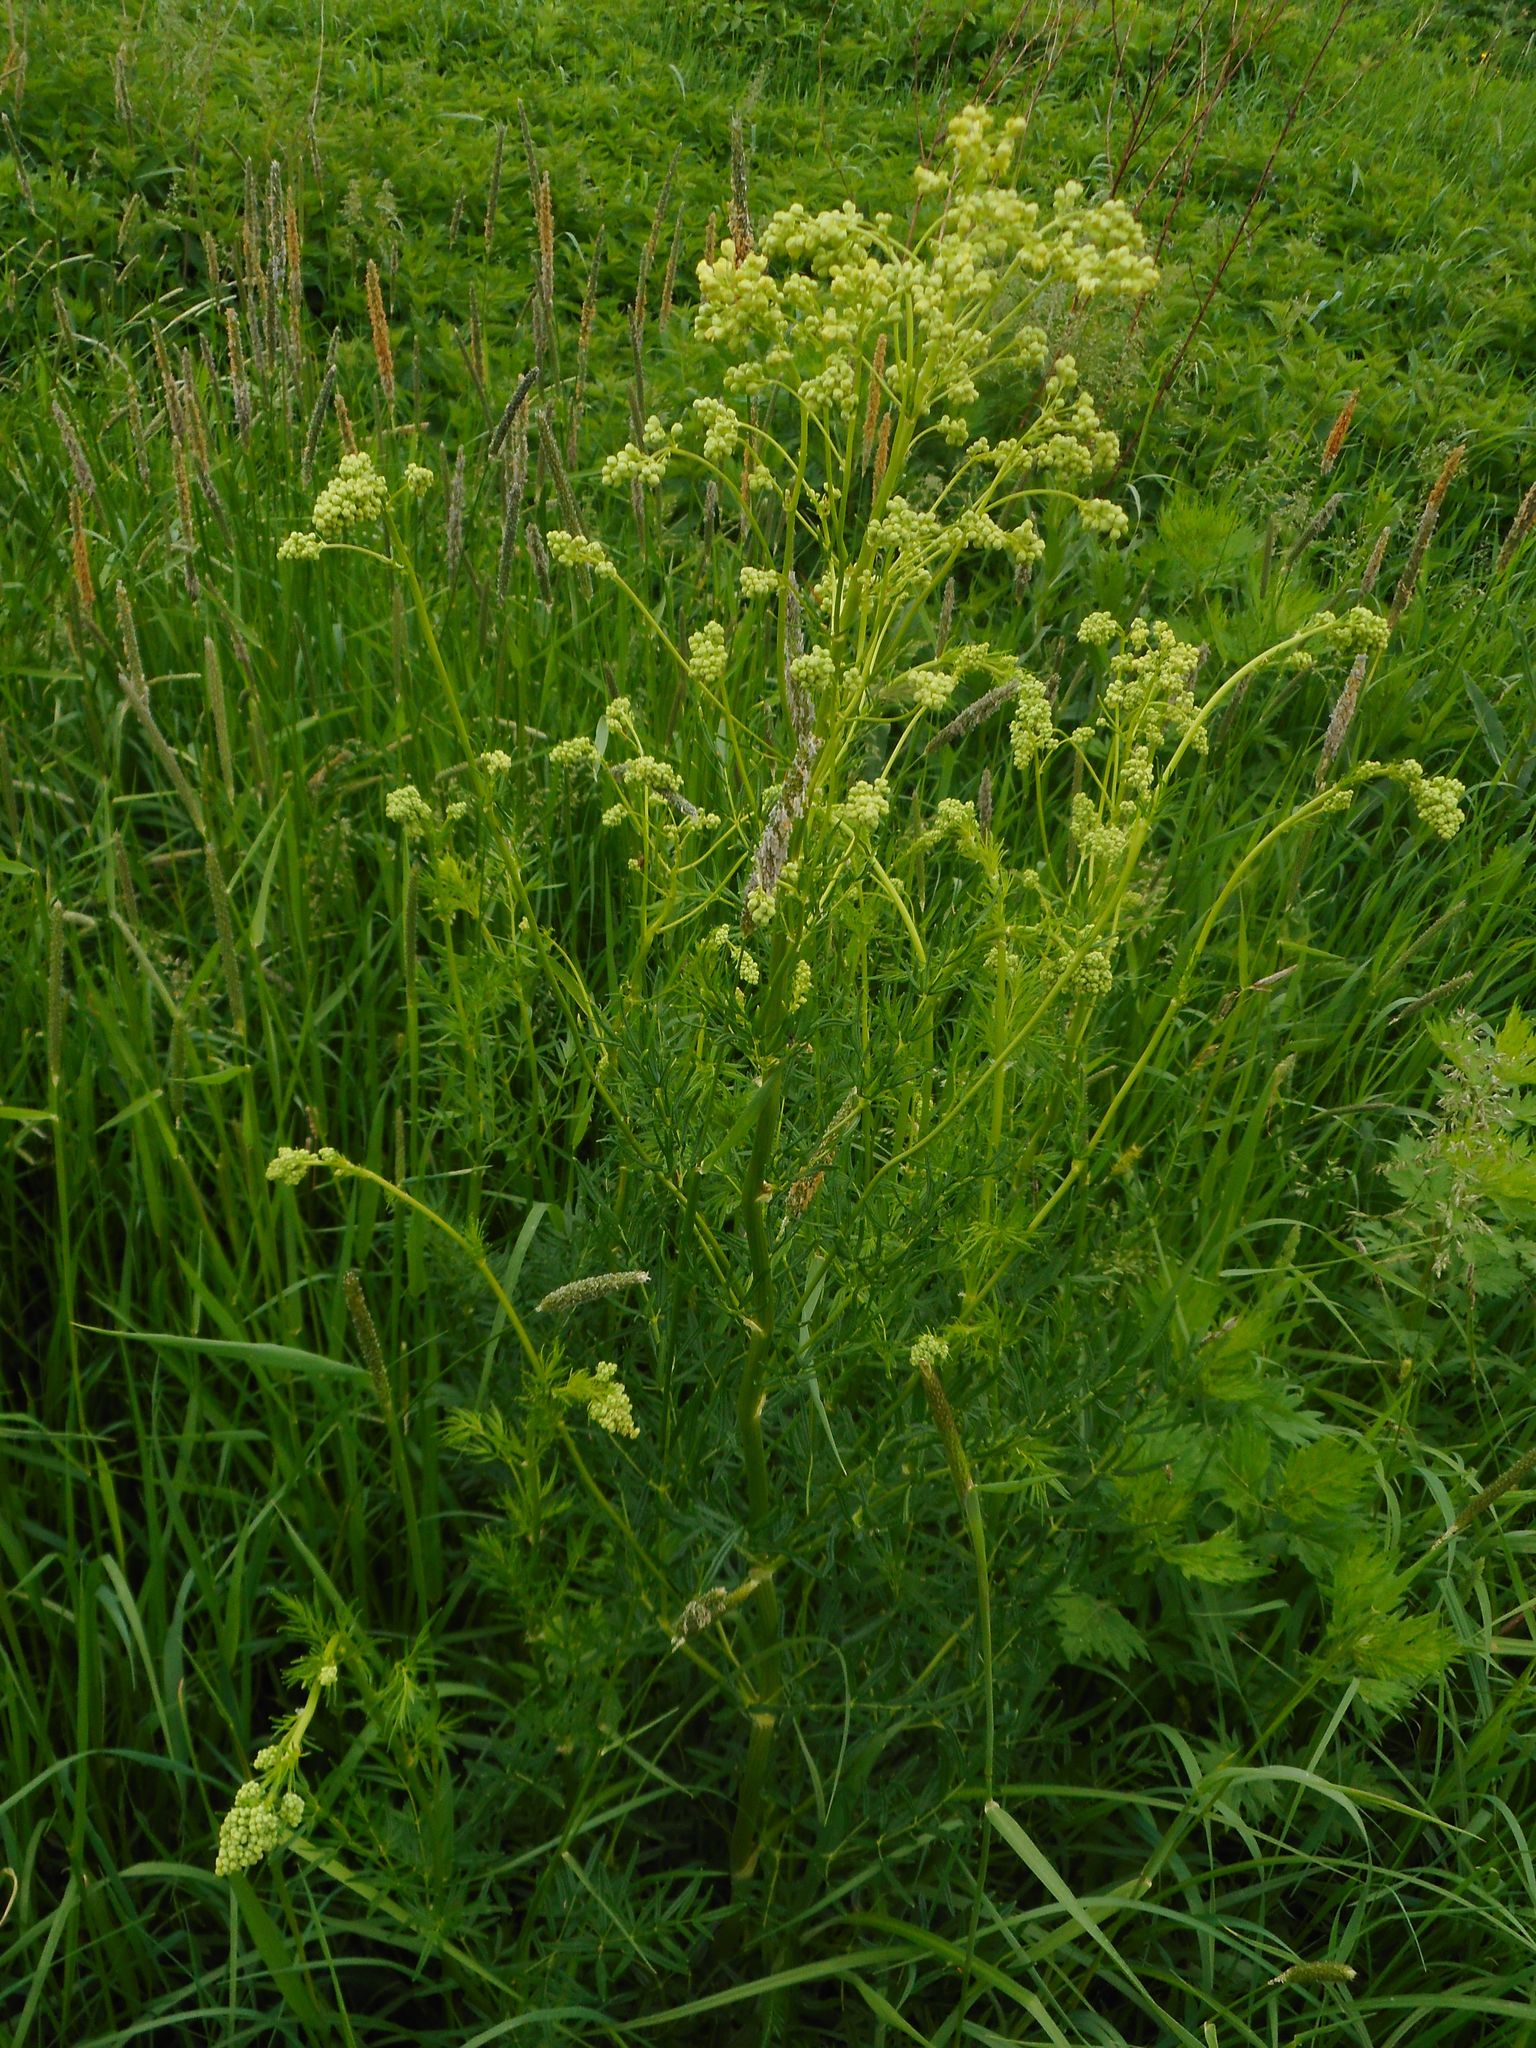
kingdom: Plantae
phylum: Tracheophyta
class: Magnoliopsida
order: Ranunculales
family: Ranunculaceae
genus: Thalictrum
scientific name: Thalictrum lucidum
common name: Shining meadow-rue
